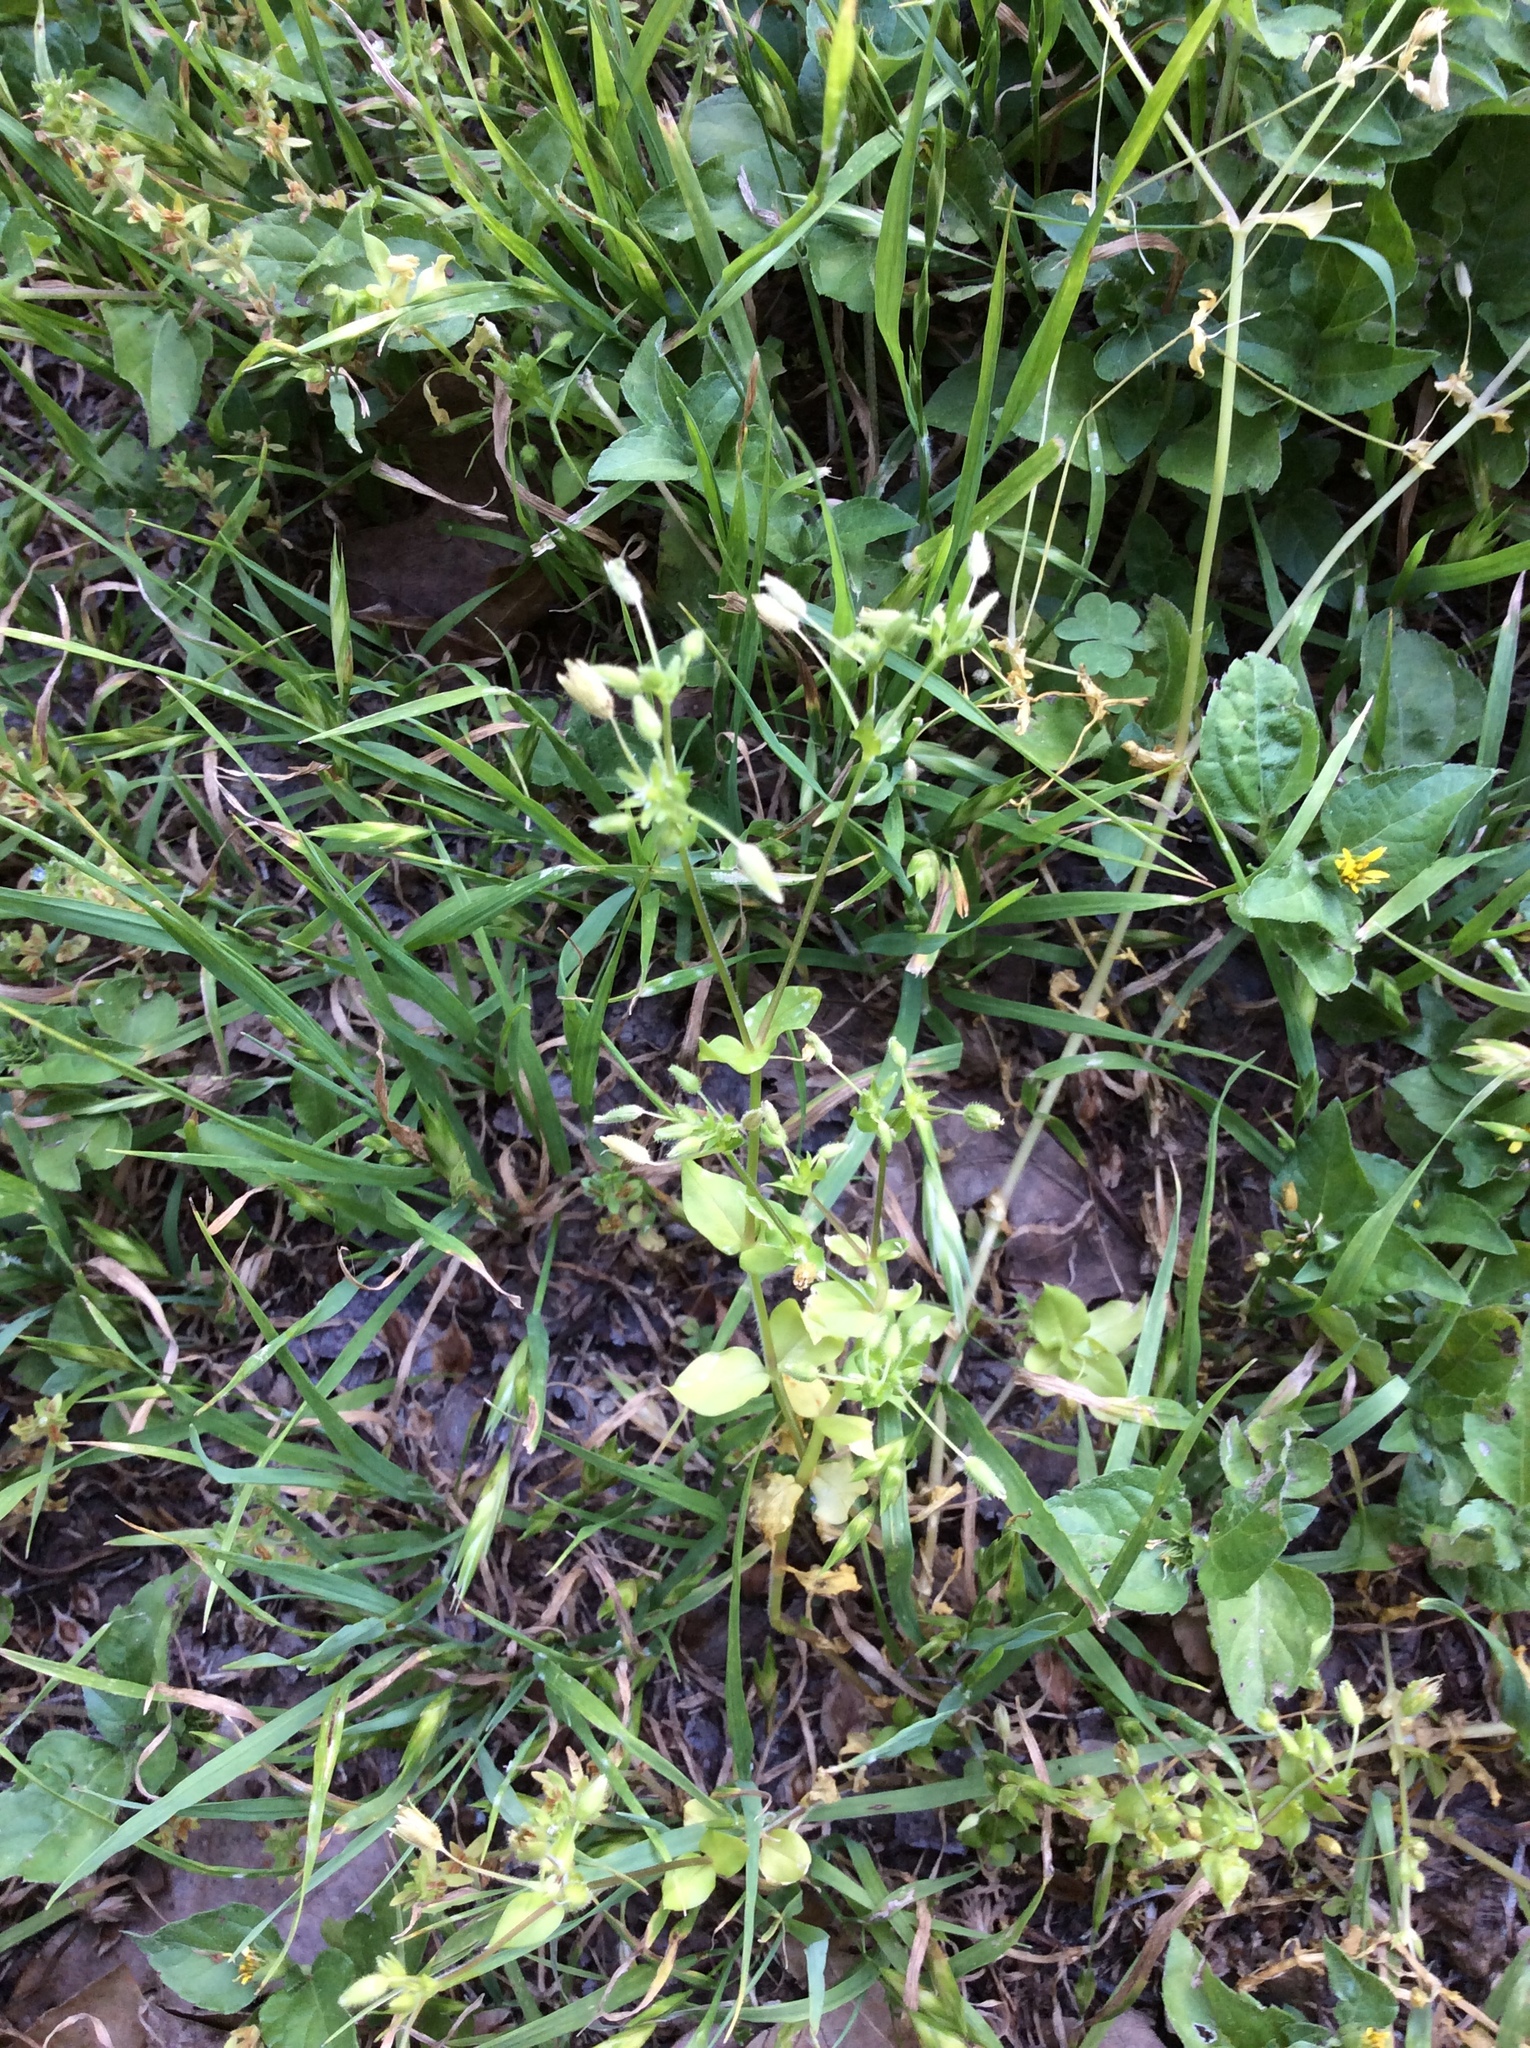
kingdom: Plantae
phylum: Tracheophyta
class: Magnoliopsida
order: Caryophyllales
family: Caryophyllaceae
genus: Cerastium
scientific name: Cerastium glomeratum
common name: Sticky chickweed
